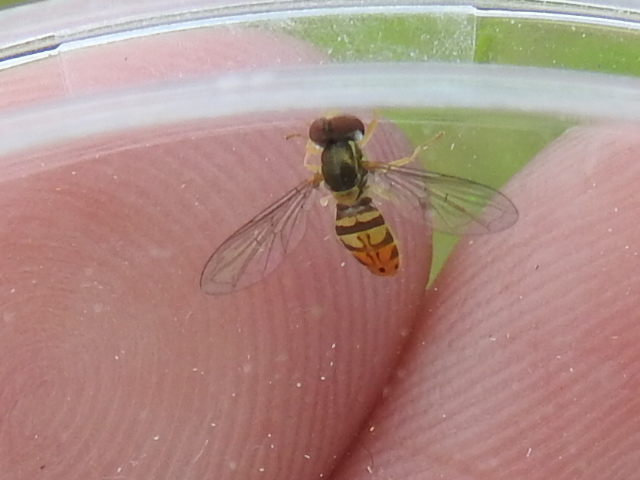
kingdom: Animalia
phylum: Arthropoda
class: Insecta
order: Diptera
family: Syrphidae
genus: Toxomerus
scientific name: Toxomerus marginatus
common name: Syrphid fly
